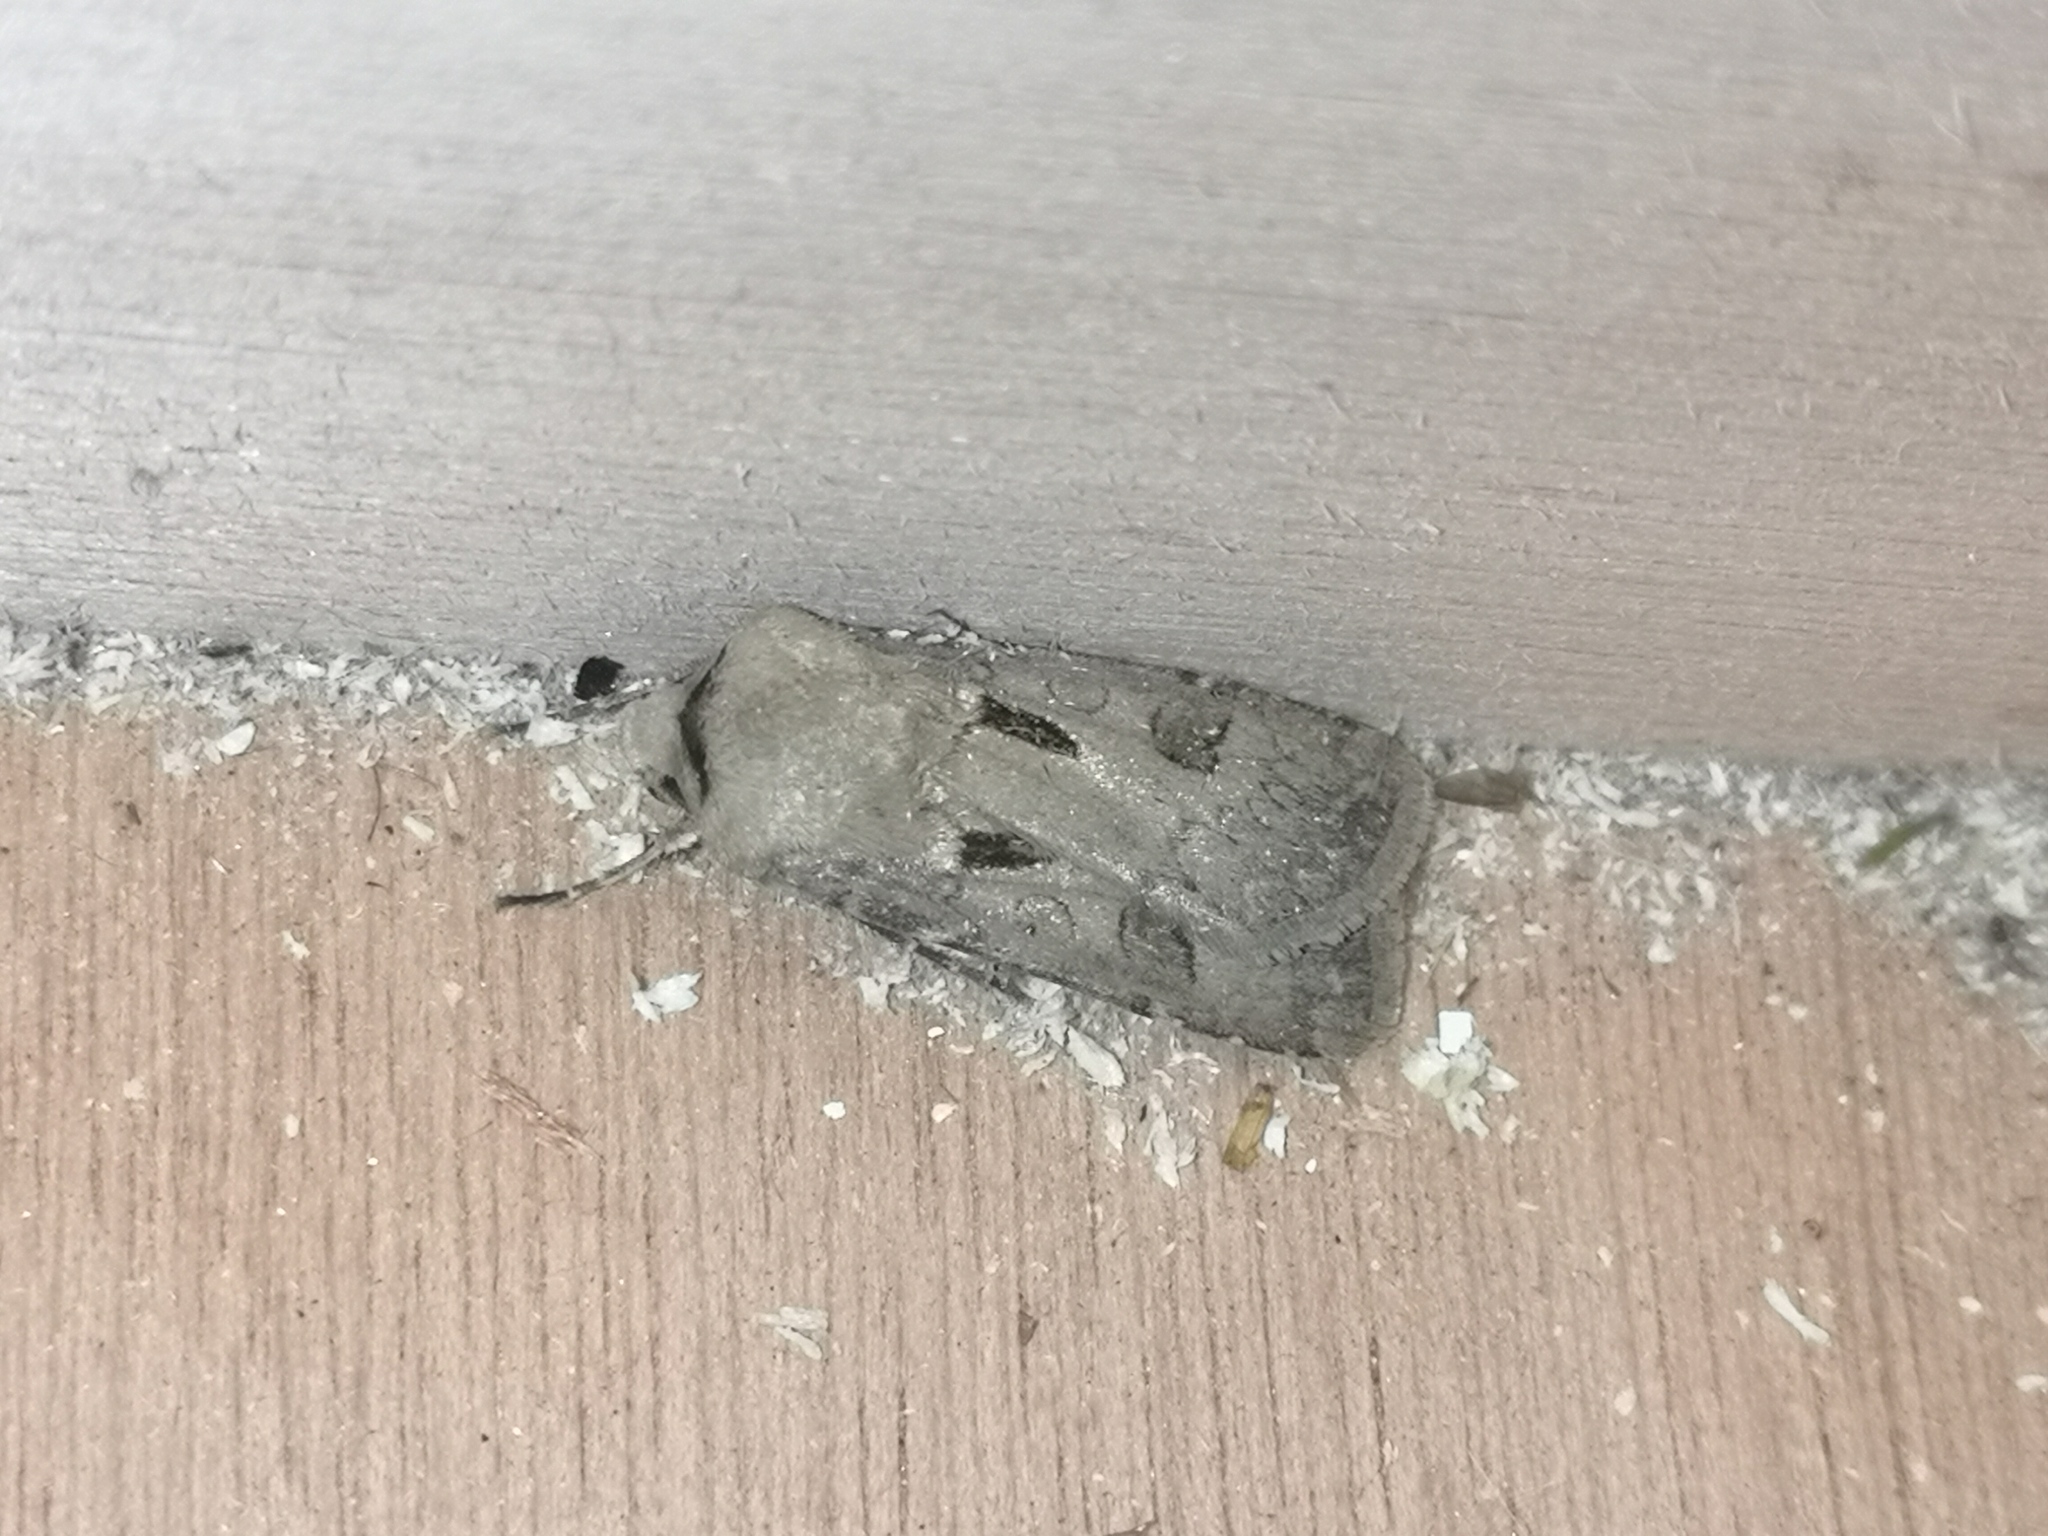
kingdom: Animalia
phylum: Arthropoda
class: Insecta
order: Lepidoptera
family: Noctuidae
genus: Agrotis
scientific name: Agrotis exclamationis
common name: Heart and dart
